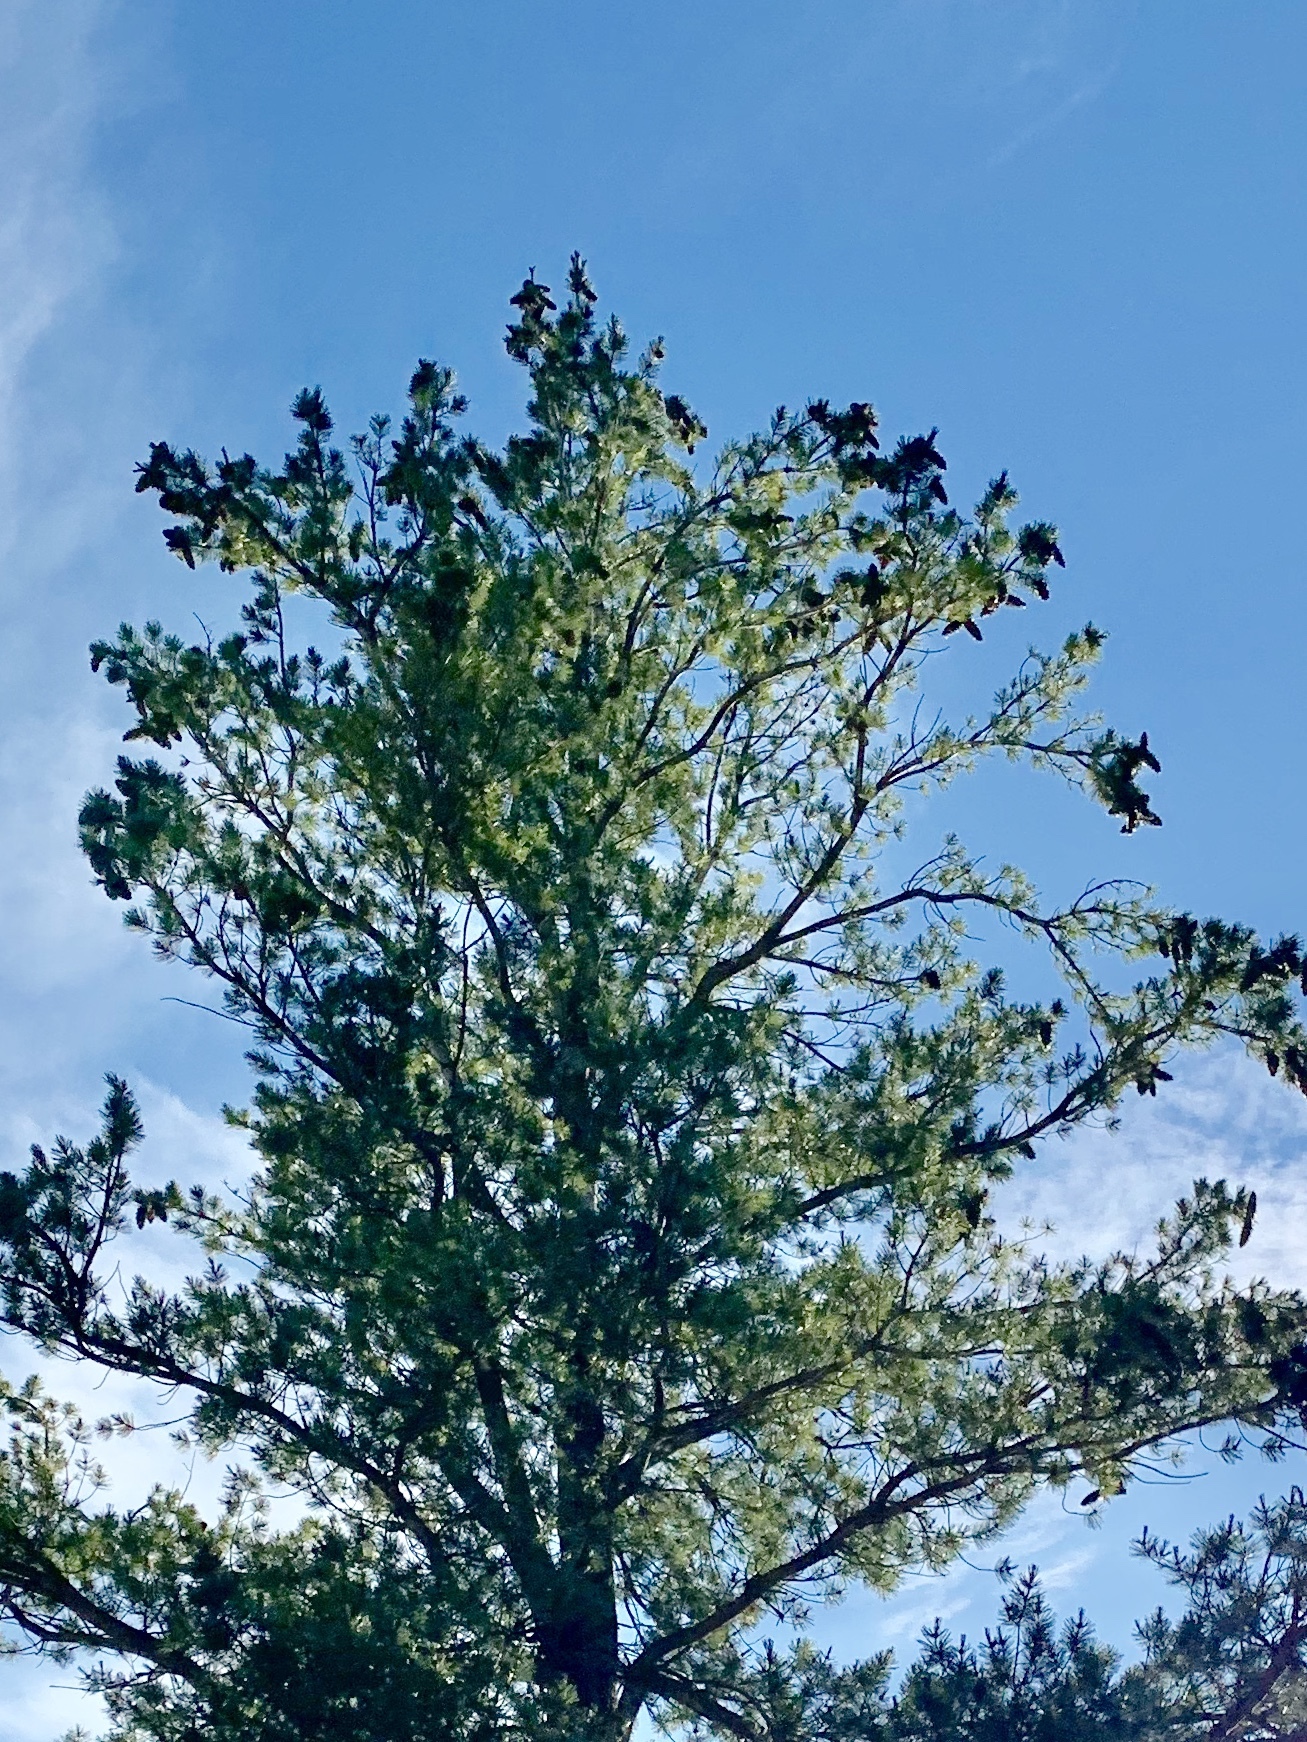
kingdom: Plantae
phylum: Tracheophyta
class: Pinopsida
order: Pinales
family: Pinaceae
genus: Pinus
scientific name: Pinus strobiformis
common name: Southwestern white pine
